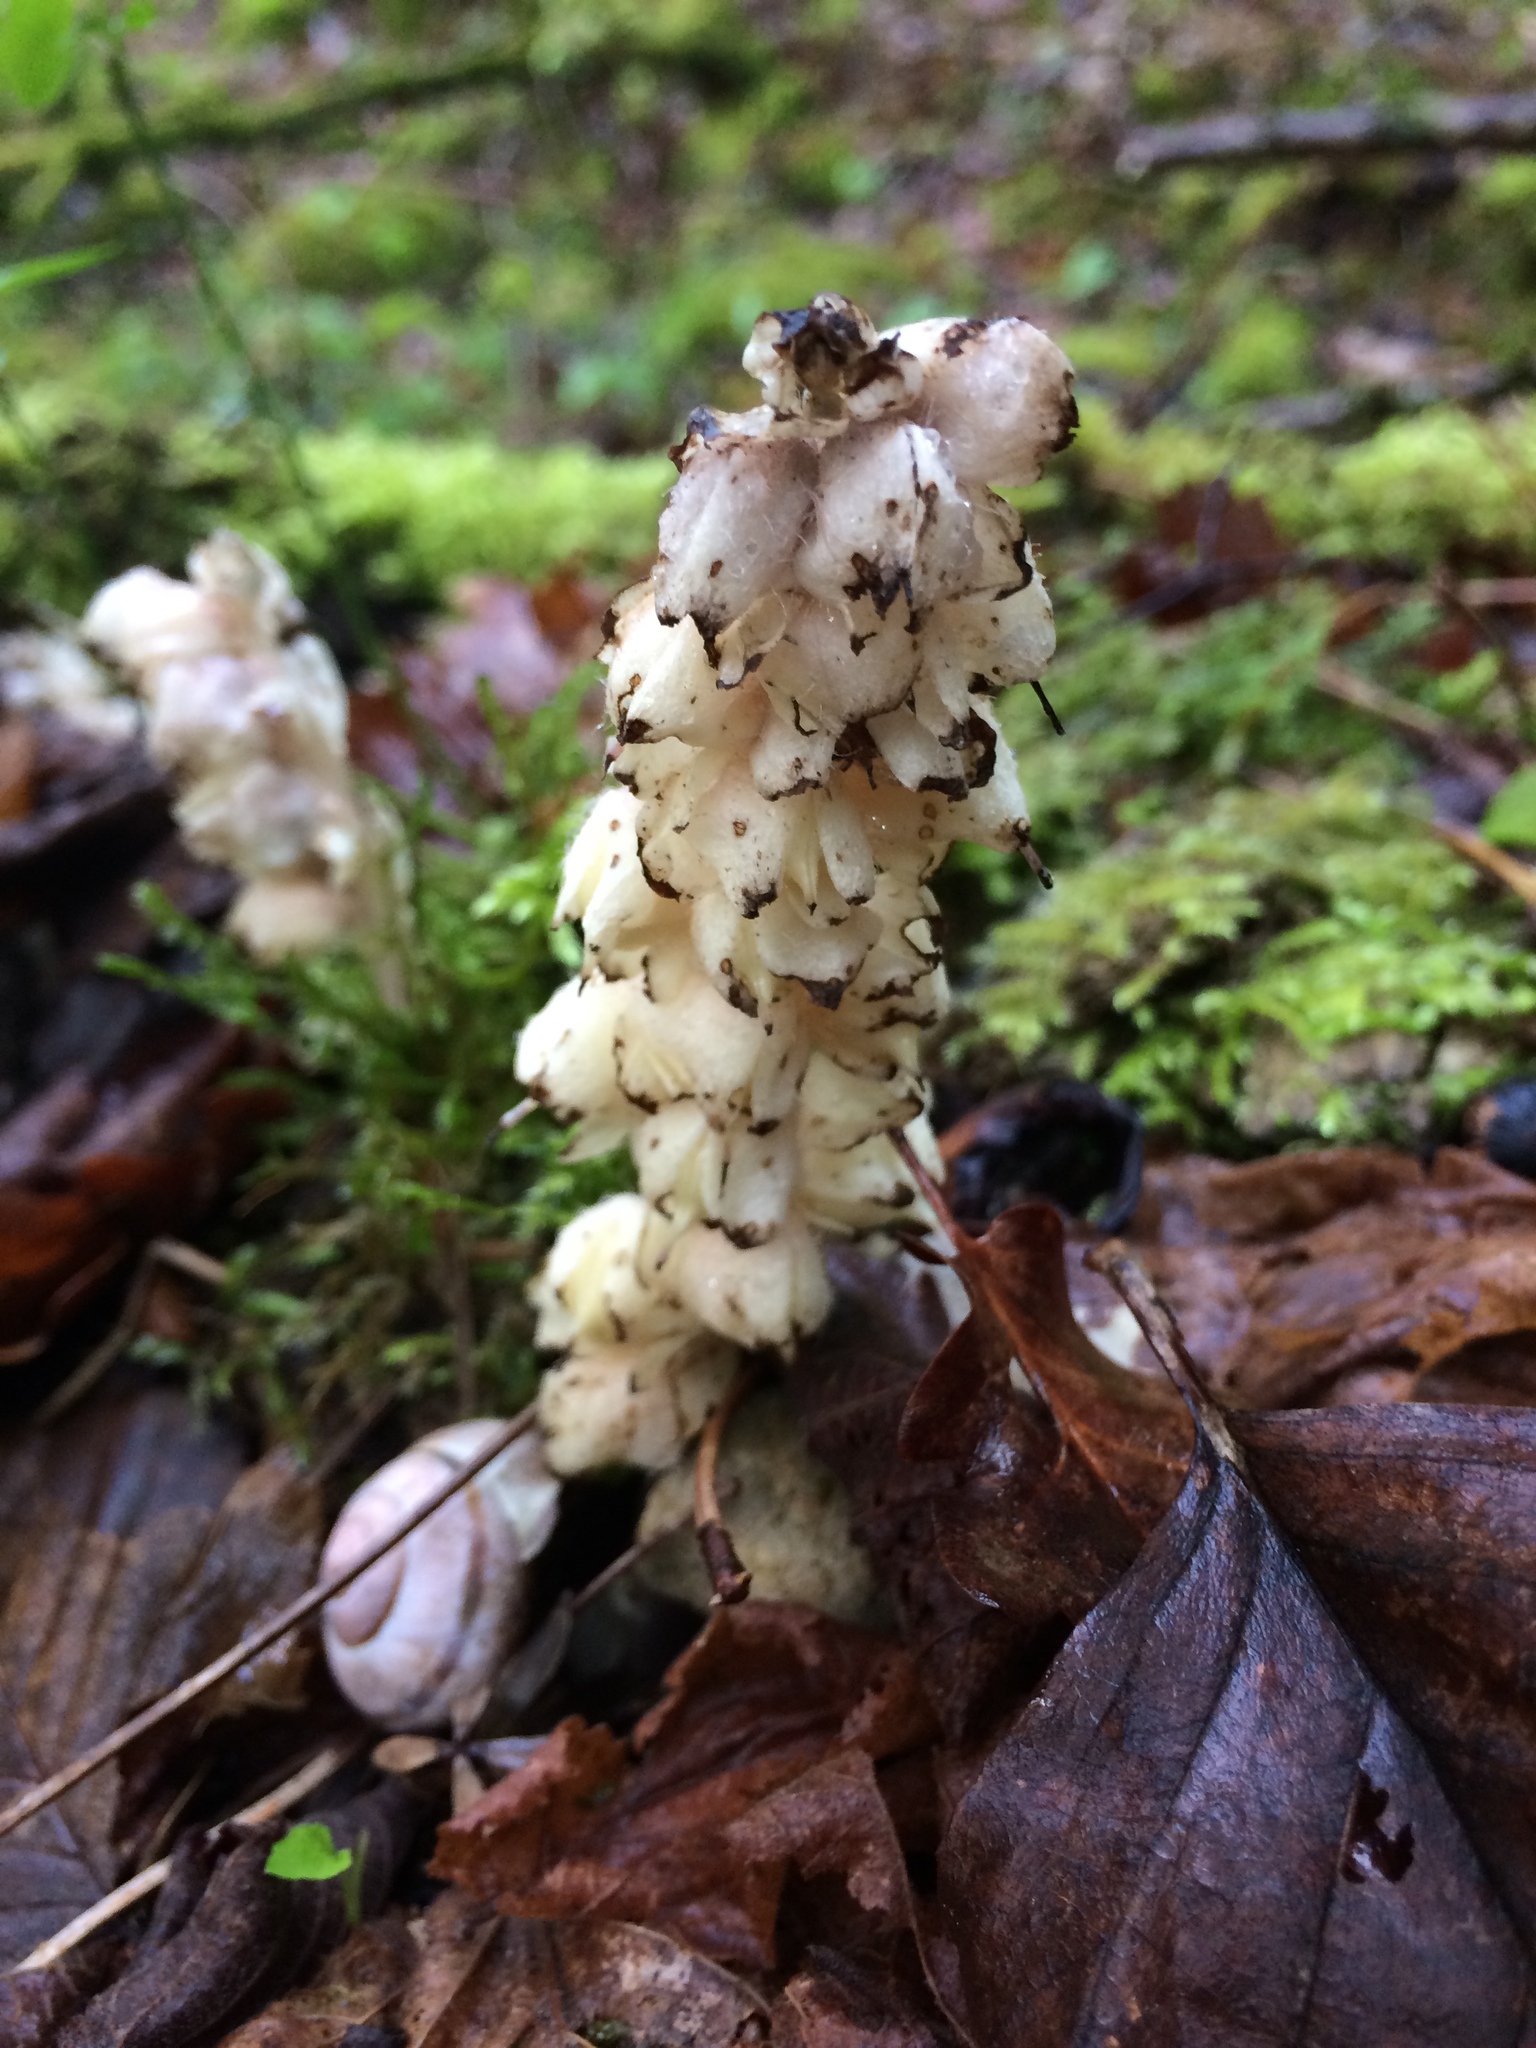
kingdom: Plantae
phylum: Tracheophyta
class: Magnoliopsida
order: Lamiales
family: Orobanchaceae
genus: Lathraea
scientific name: Lathraea squamaria
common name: Toothwort
